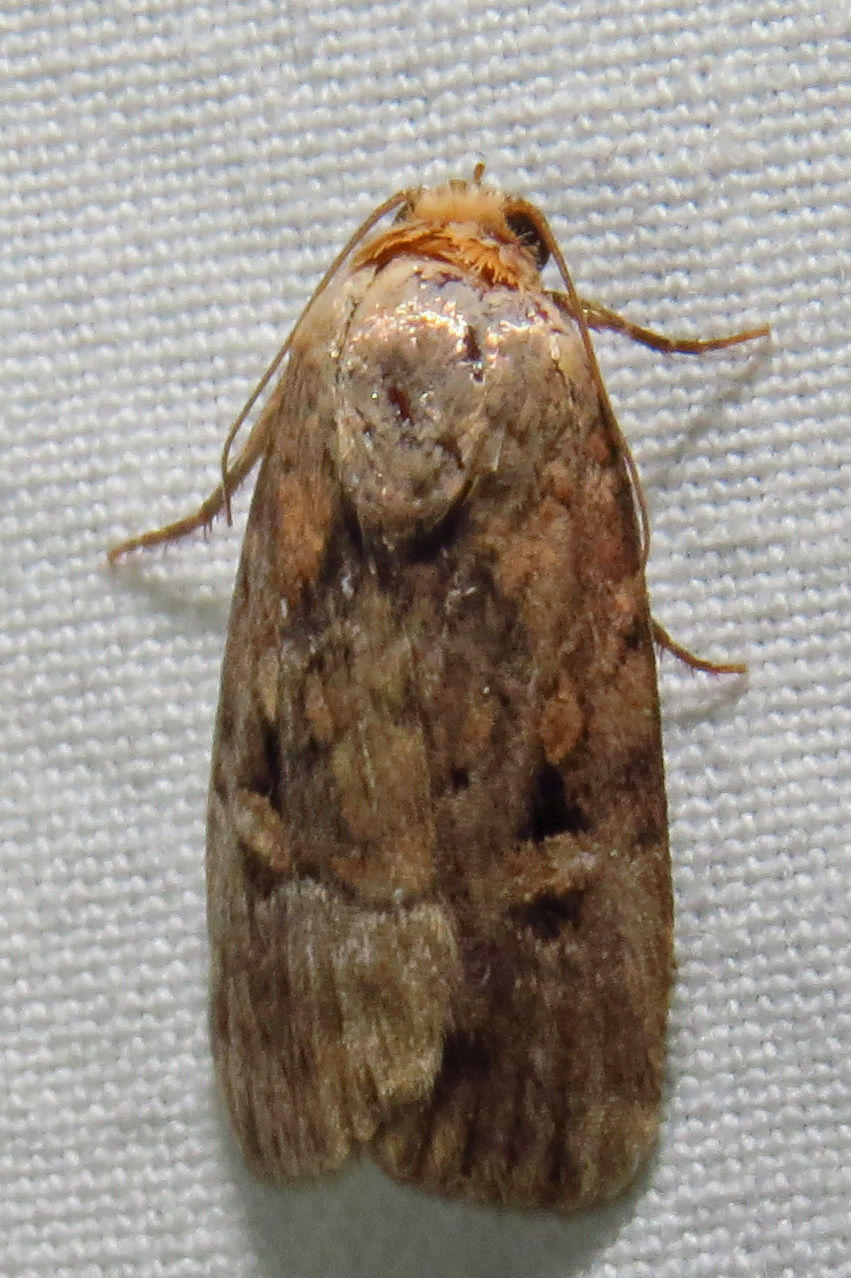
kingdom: Animalia
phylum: Arthropoda
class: Insecta
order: Lepidoptera
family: Noctuidae
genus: Elaphria
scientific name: Elaphria chalcedonia
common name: Chalcedony midget
